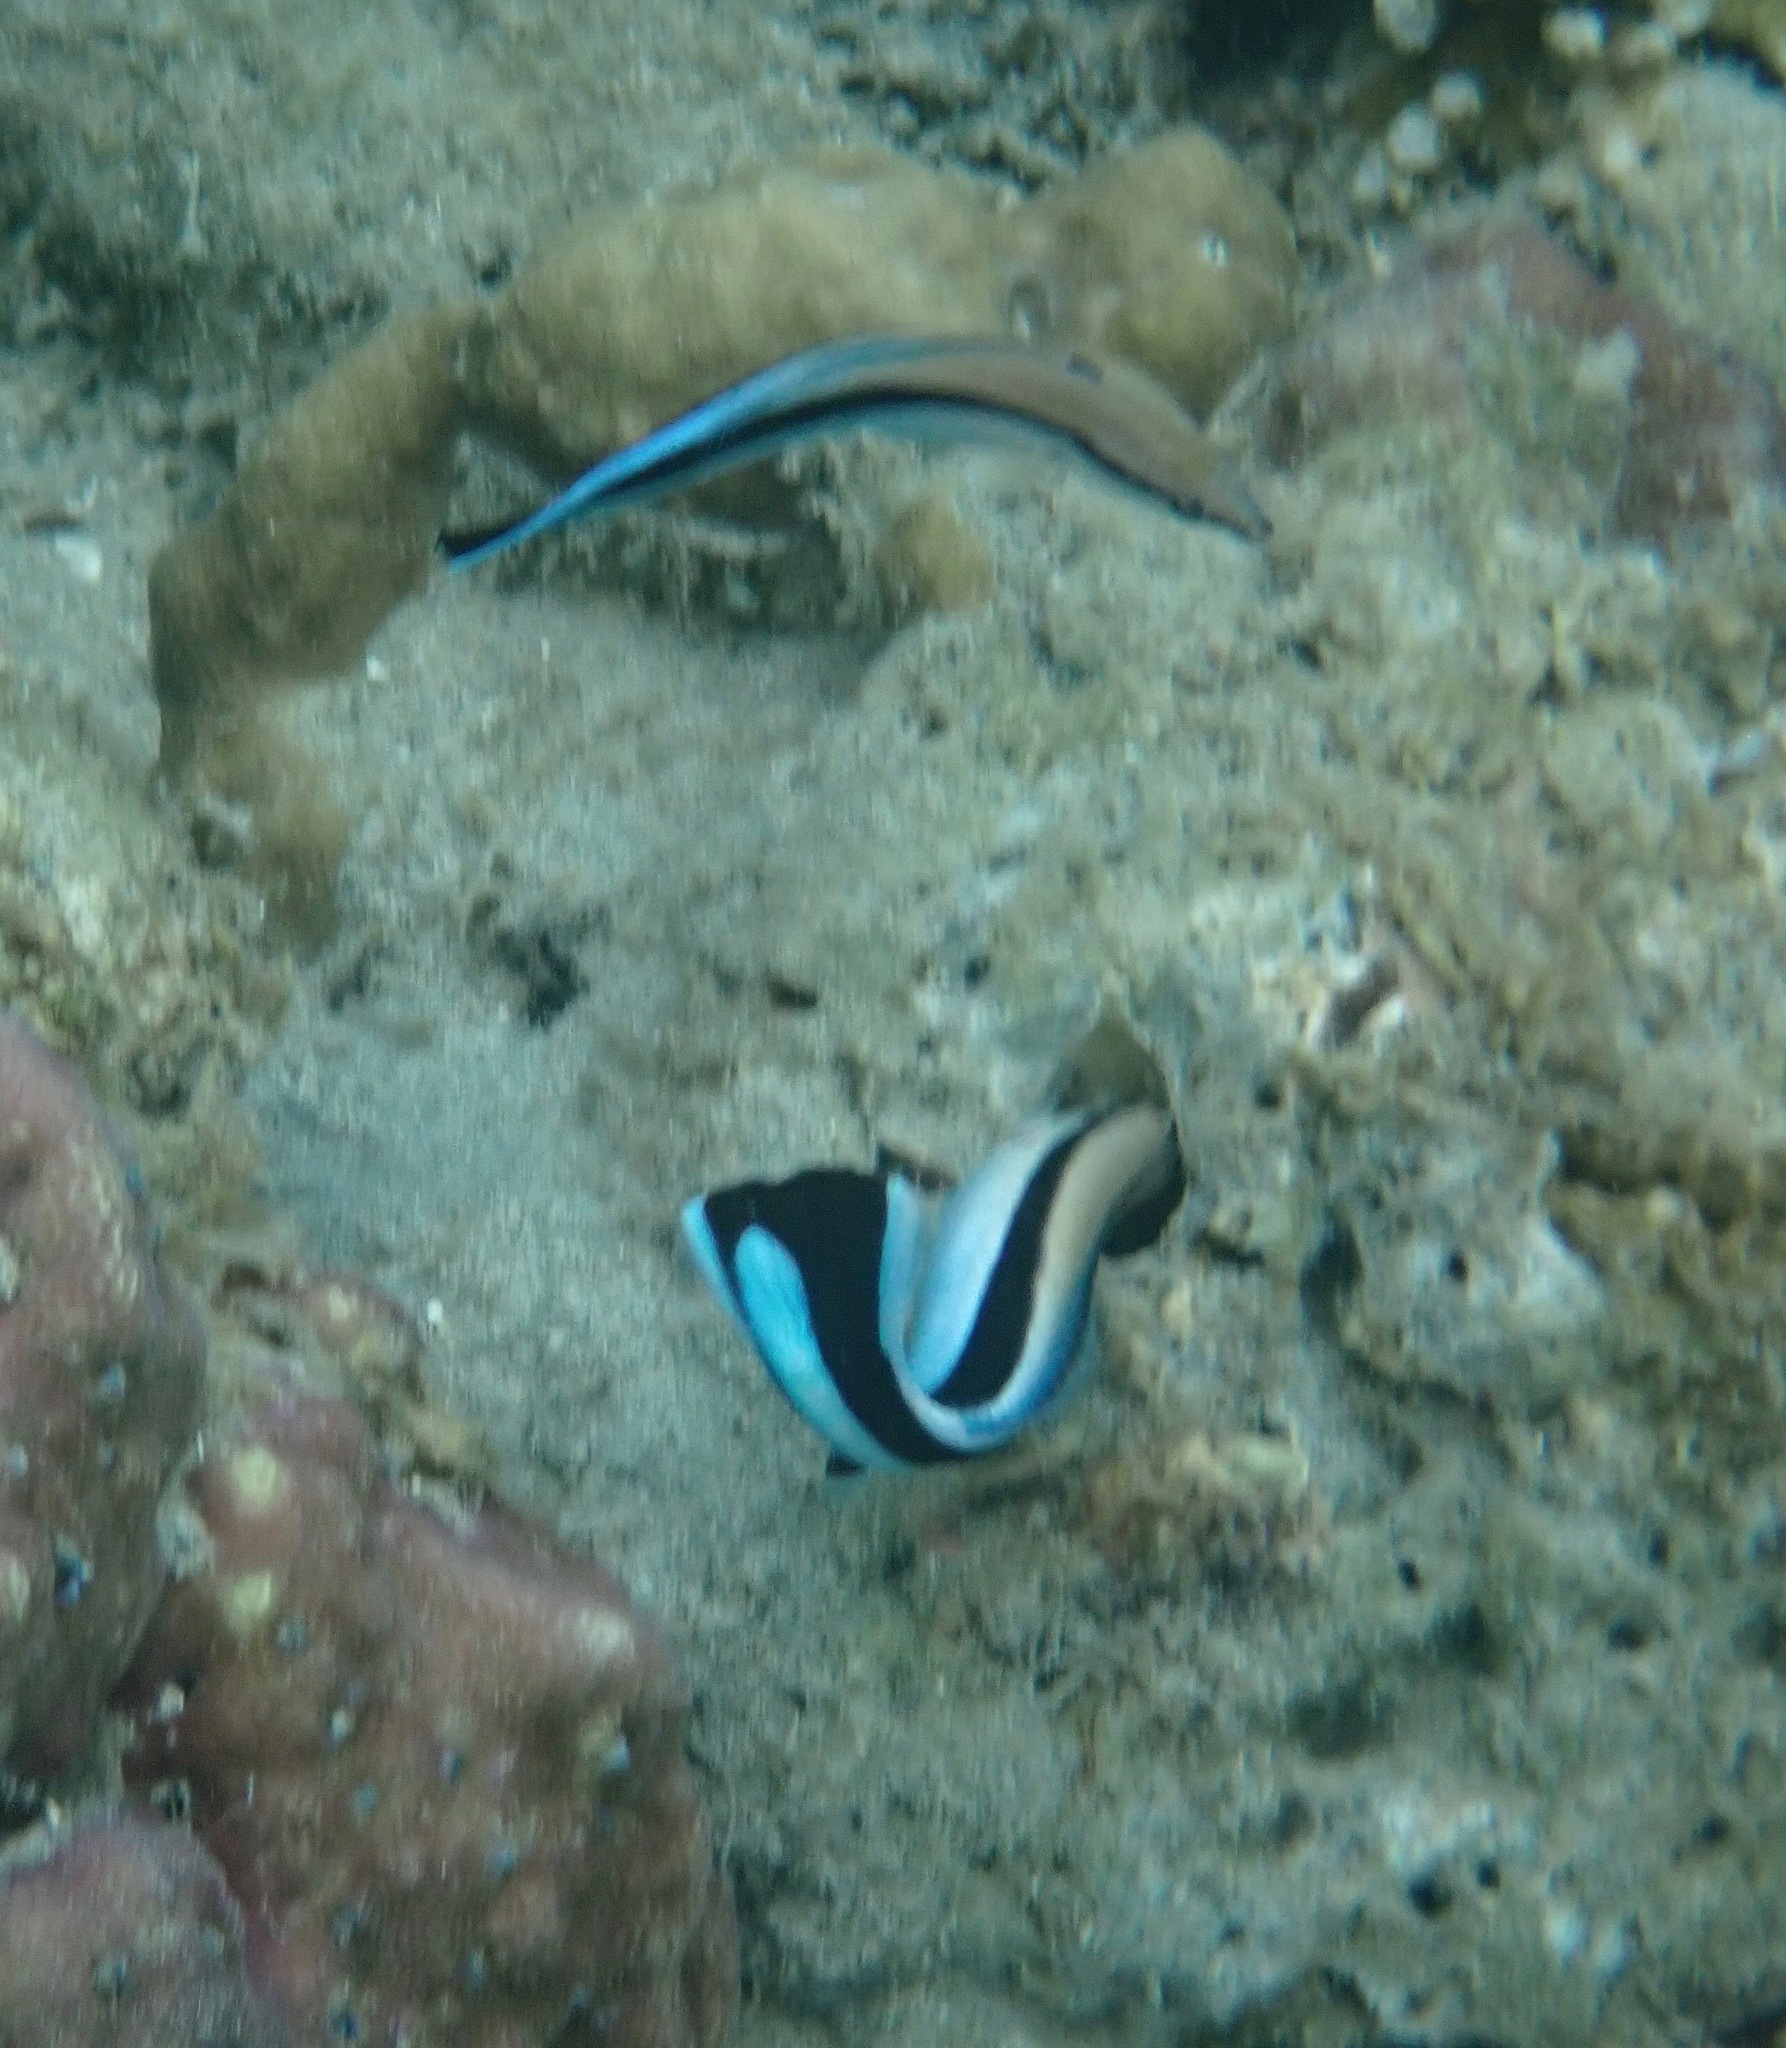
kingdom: Animalia
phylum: Chordata
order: Perciformes
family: Labridae
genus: Labroides
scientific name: Labroides dimidiatus
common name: Blue diesel wrasse
